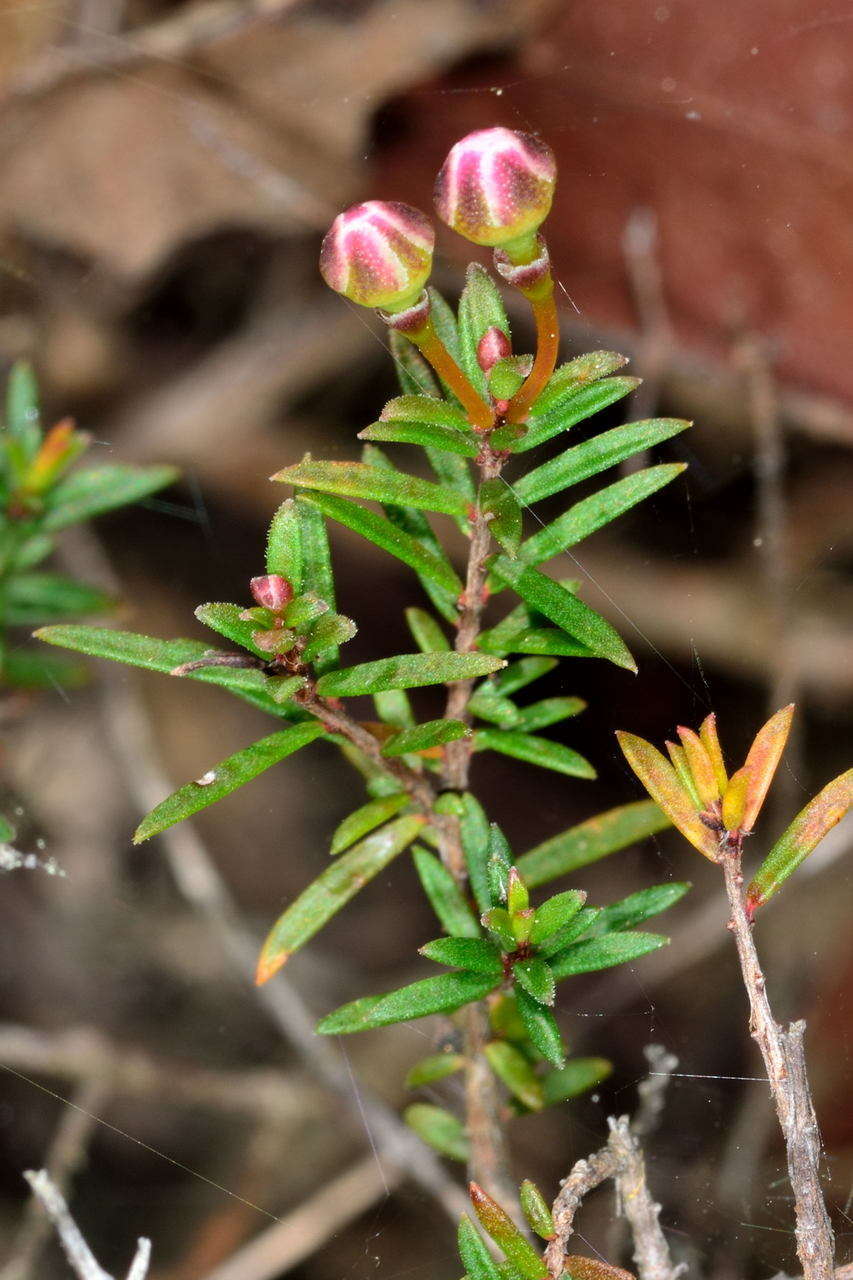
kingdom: Plantae
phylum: Tracheophyta
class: Magnoliopsida
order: Myrtales
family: Myrtaceae
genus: Euryomyrtus
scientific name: Euryomyrtus ramosissima
